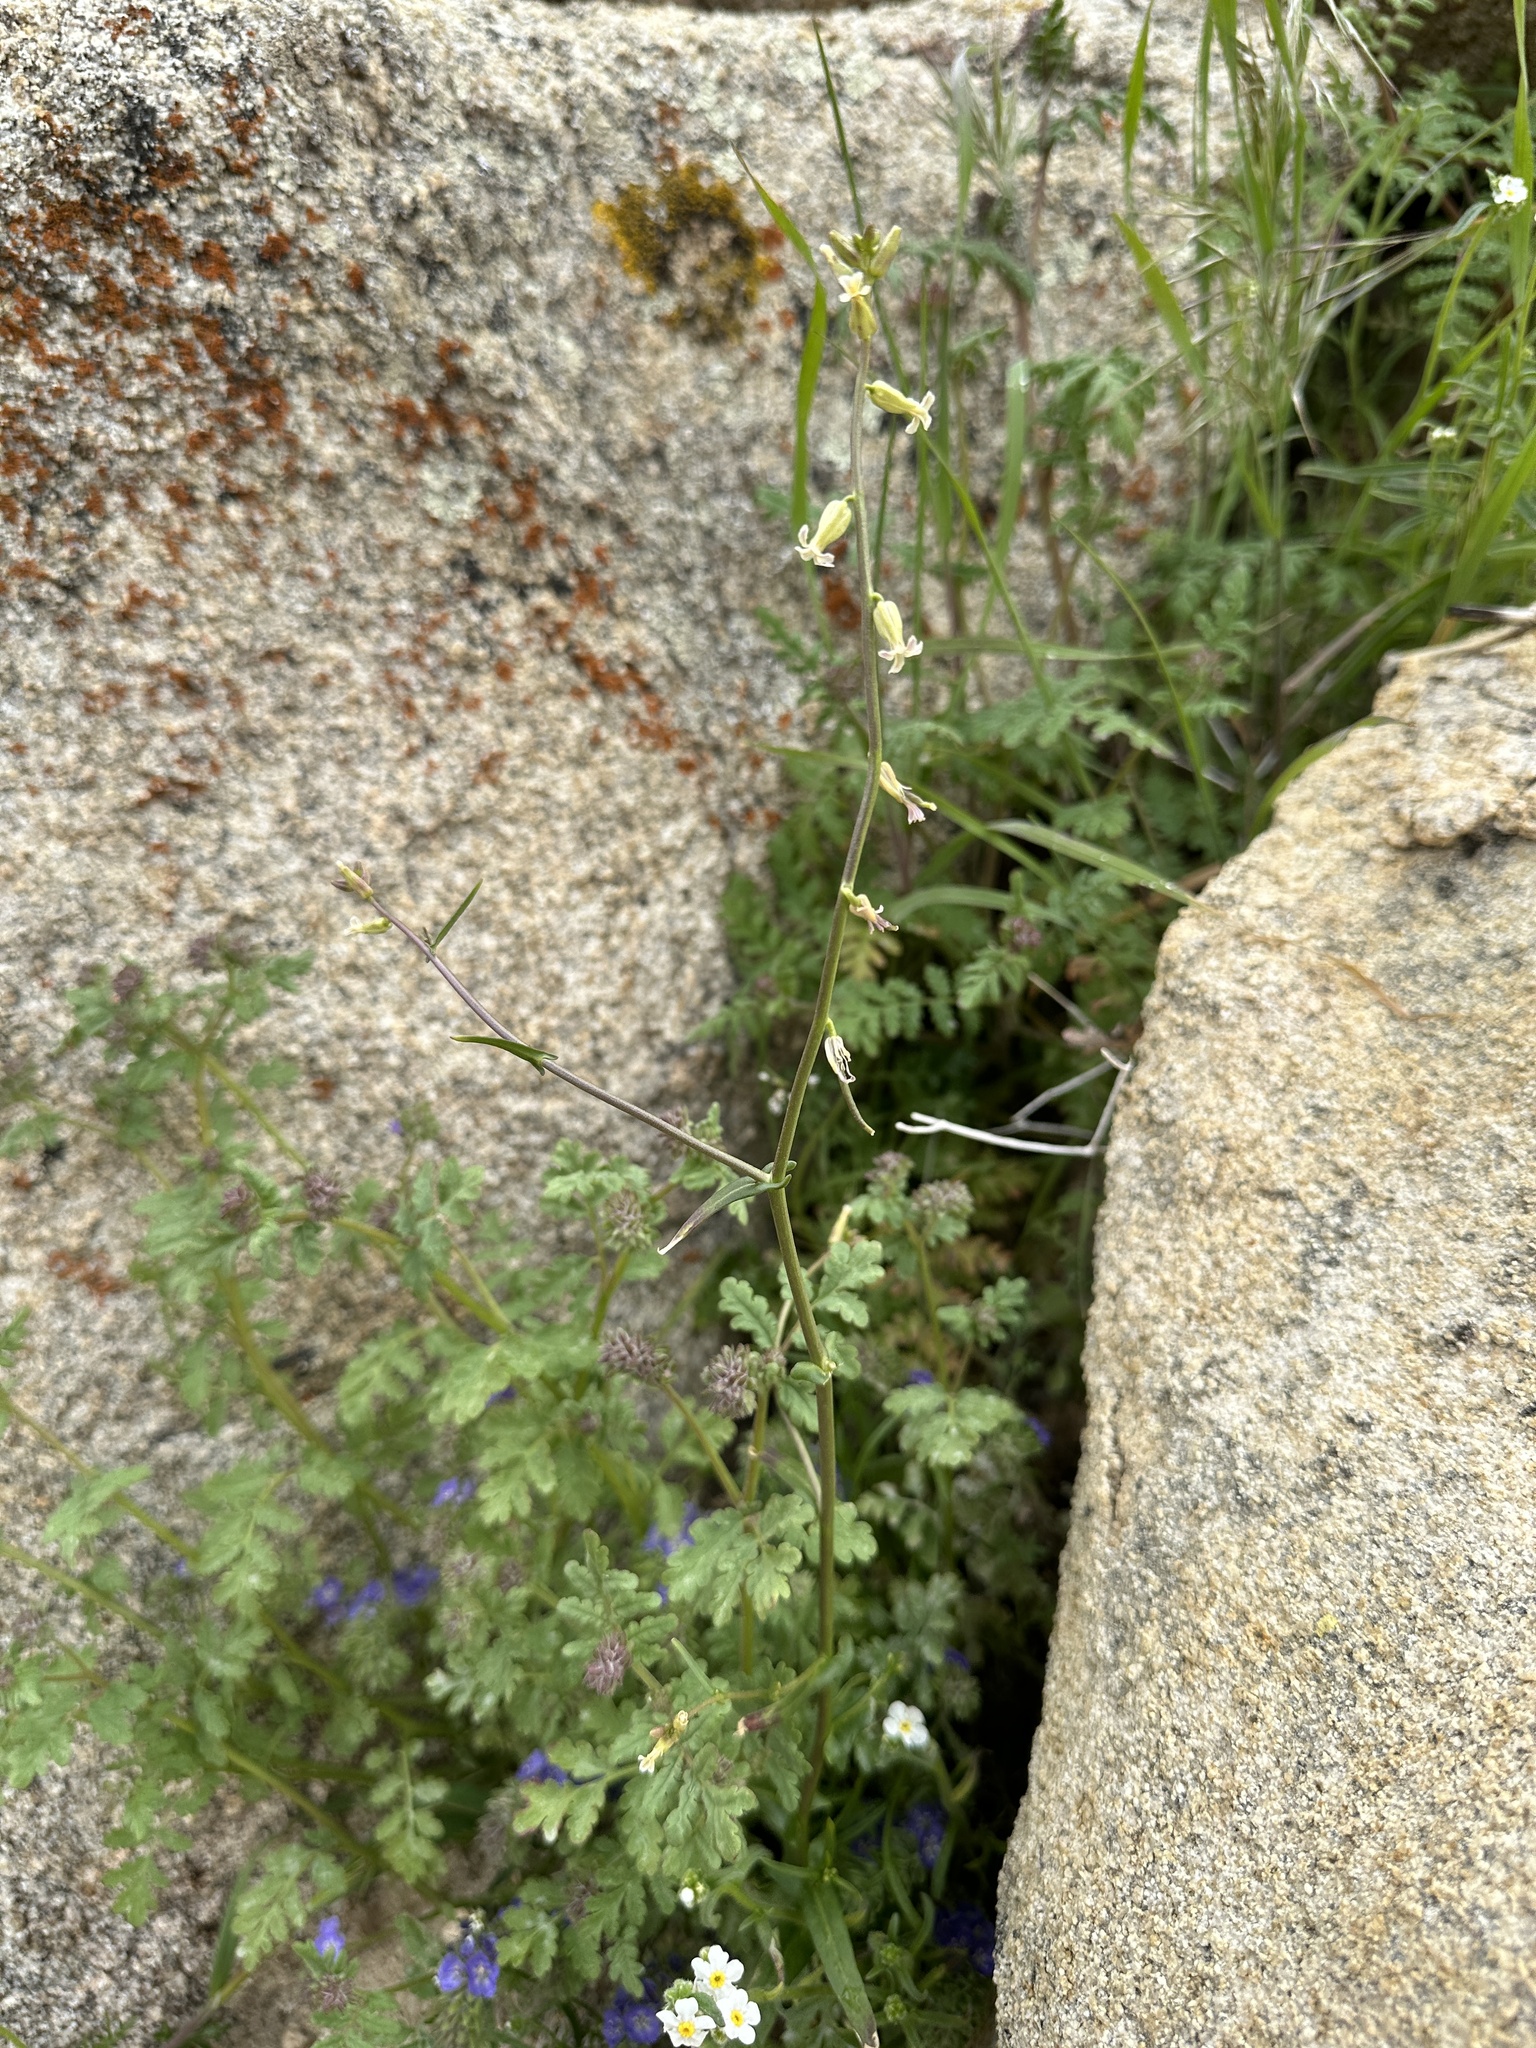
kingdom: Plantae
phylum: Tracheophyta
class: Magnoliopsida
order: Brassicales
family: Brassicaceae
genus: Streptanthus
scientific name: Streptanthus cooperi
